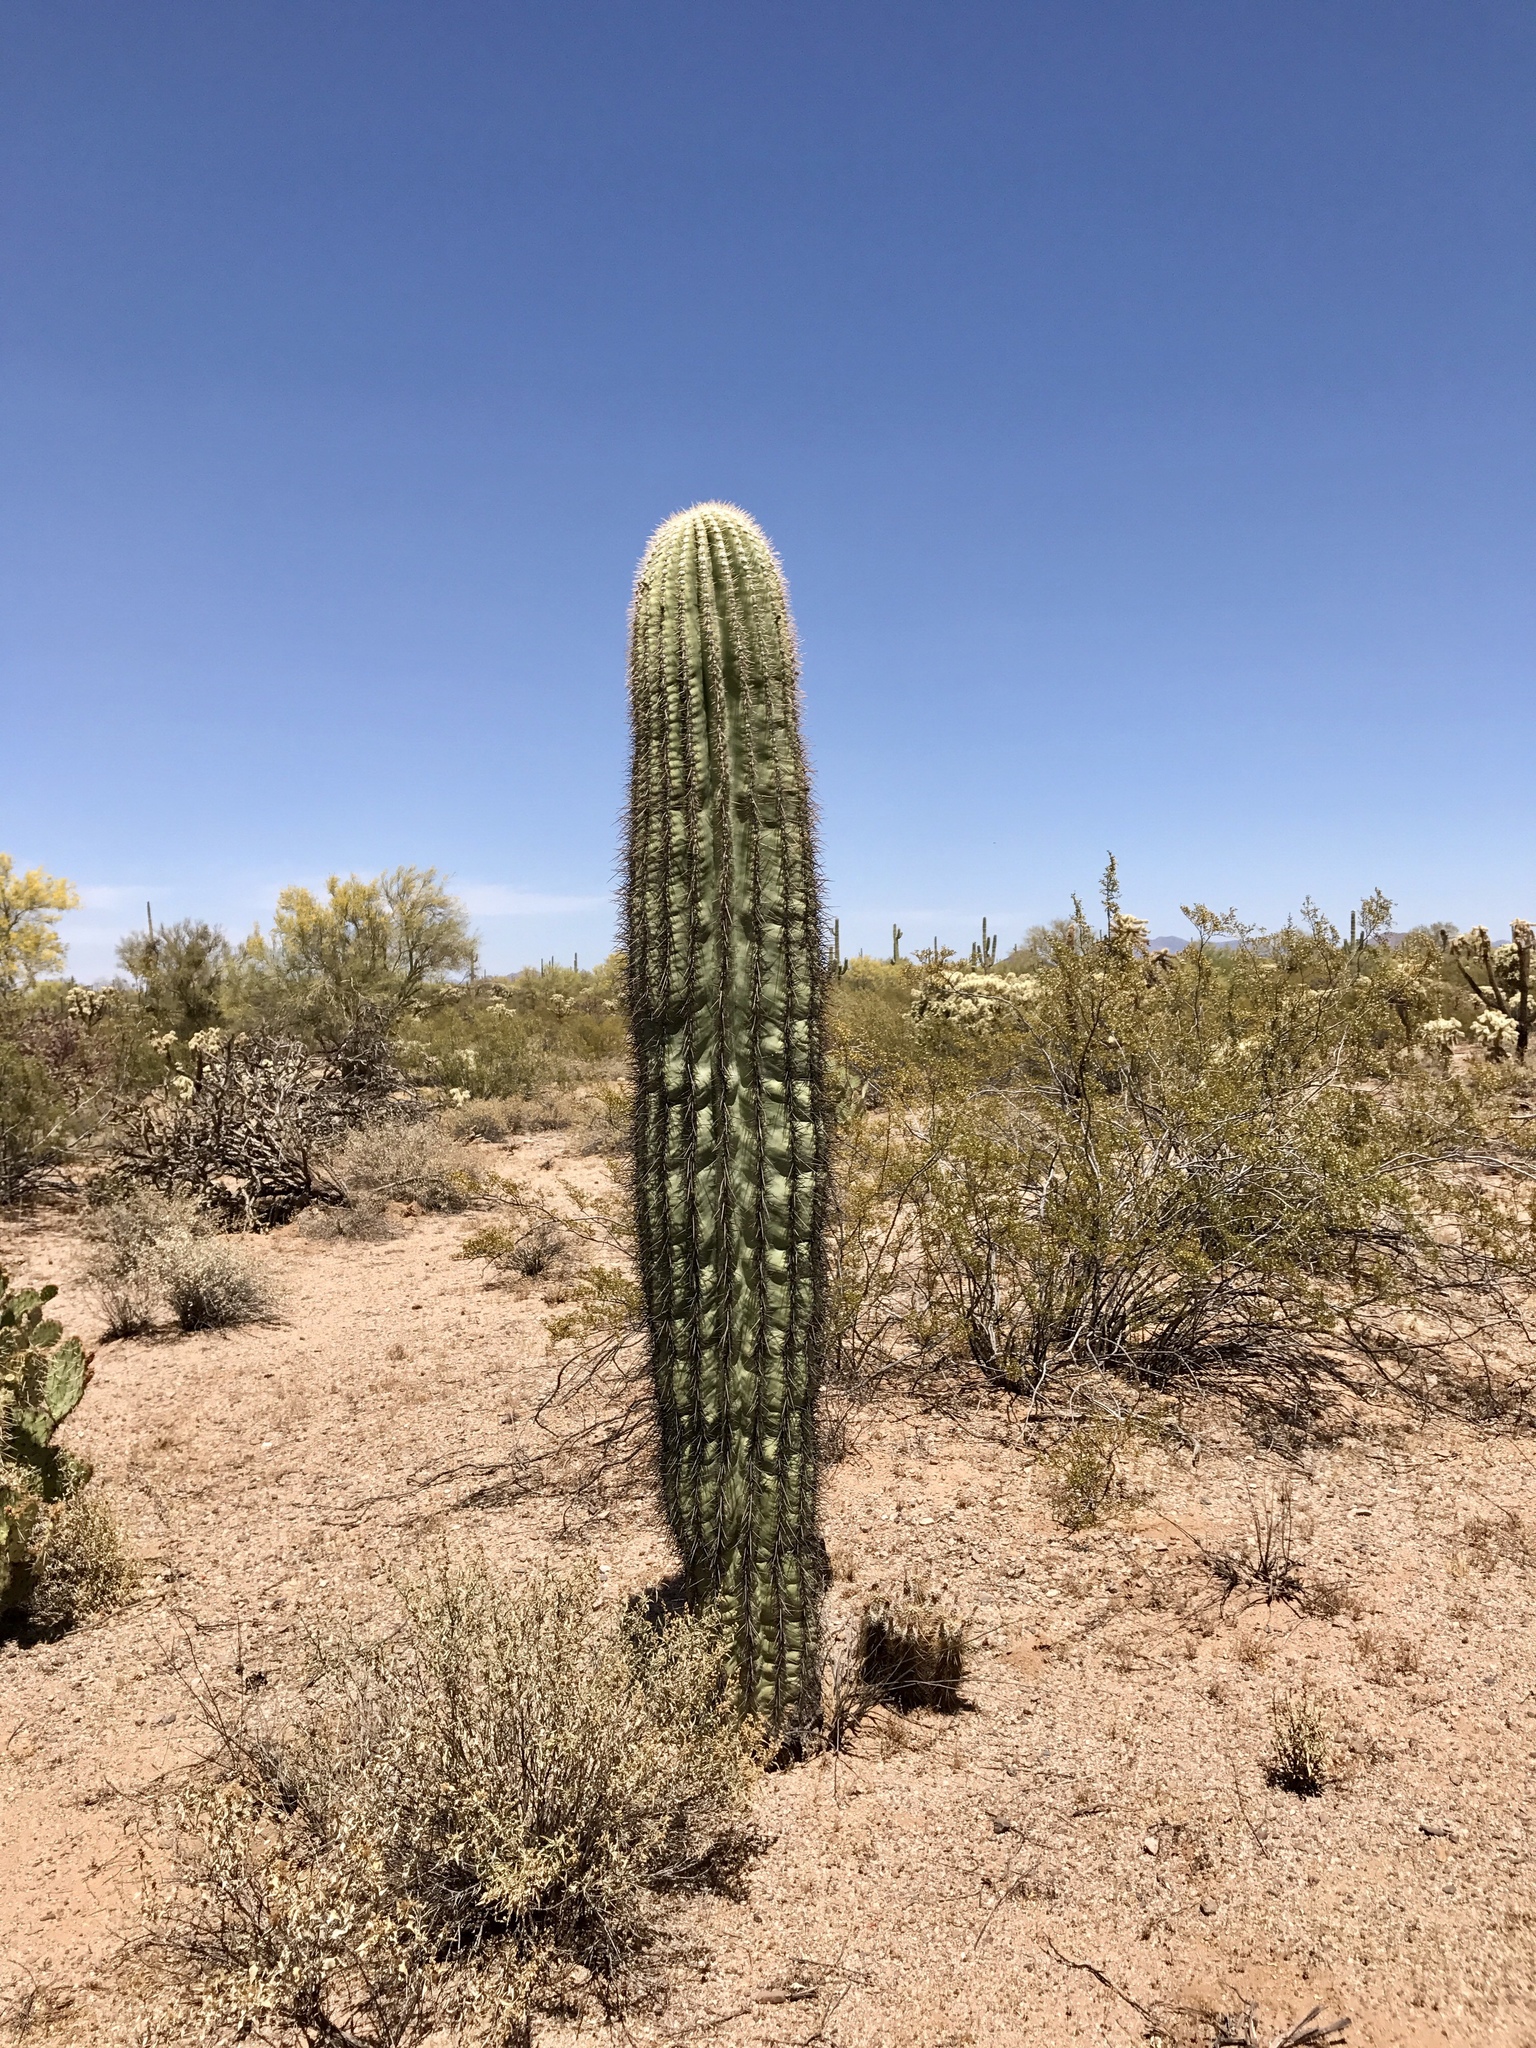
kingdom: Plantae
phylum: Tracheophyta
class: Magnoliopsida
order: Caryophyllales
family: Cactaceae
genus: Carnegiea
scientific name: Carnegiea gigantea
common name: Saguaro
